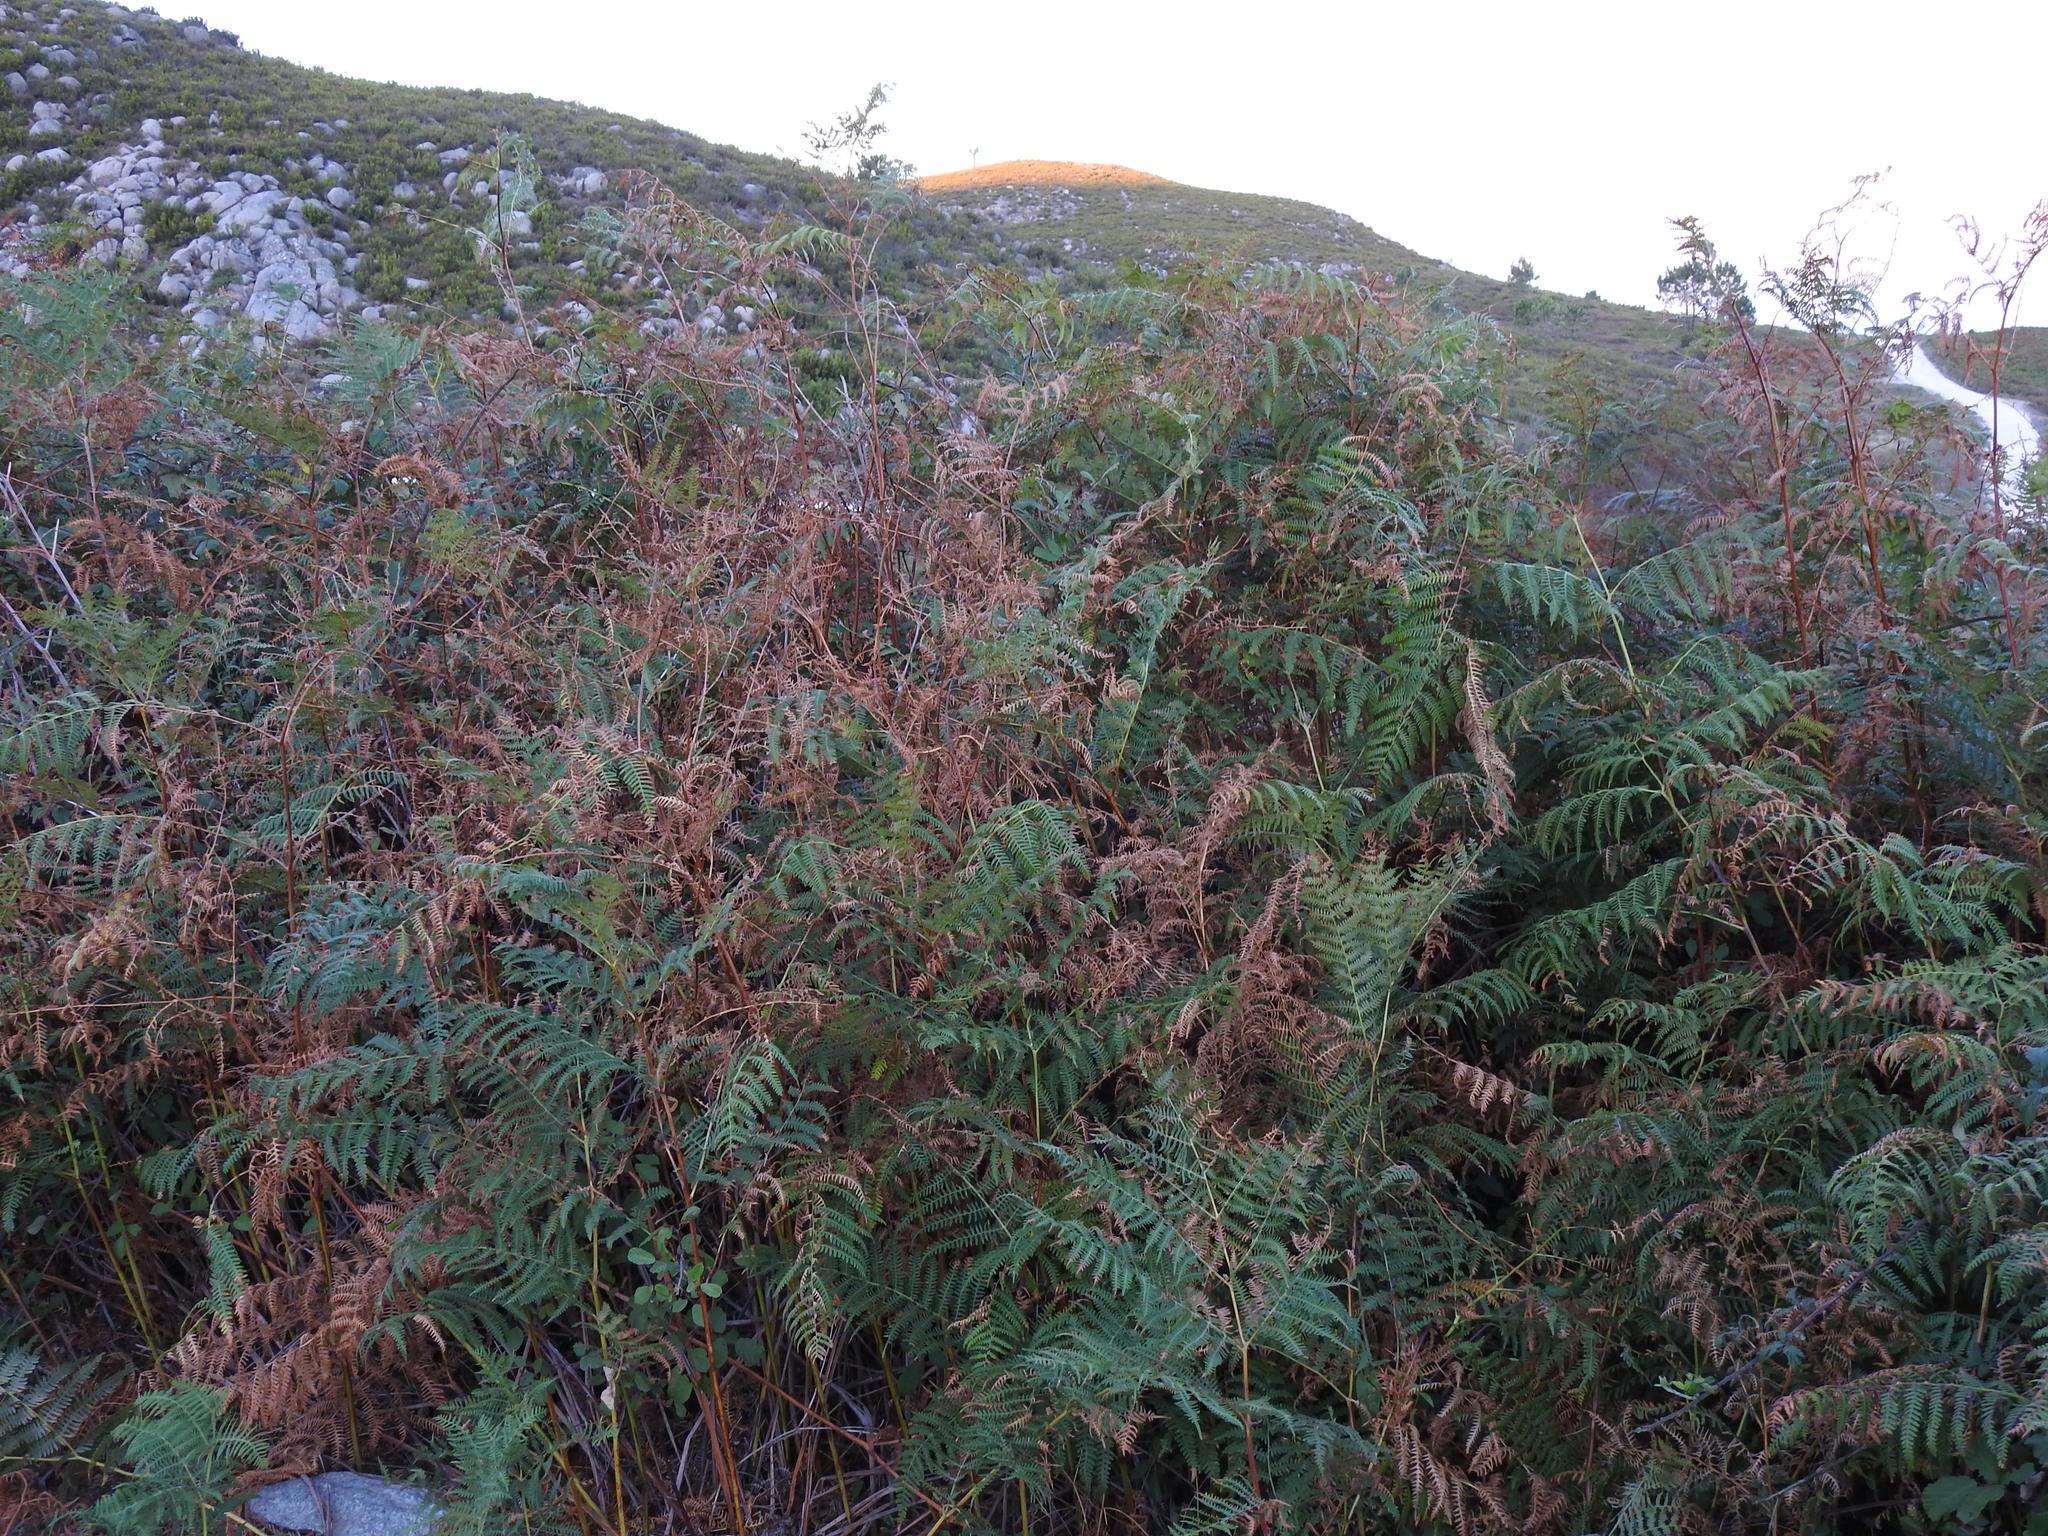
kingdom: Plantae
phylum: Tracheophyta
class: Polypodiopsida
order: Polypodiales
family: Dennstaedtiaceae
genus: Pteridium
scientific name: Pteridium aquilinum
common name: Bracken
